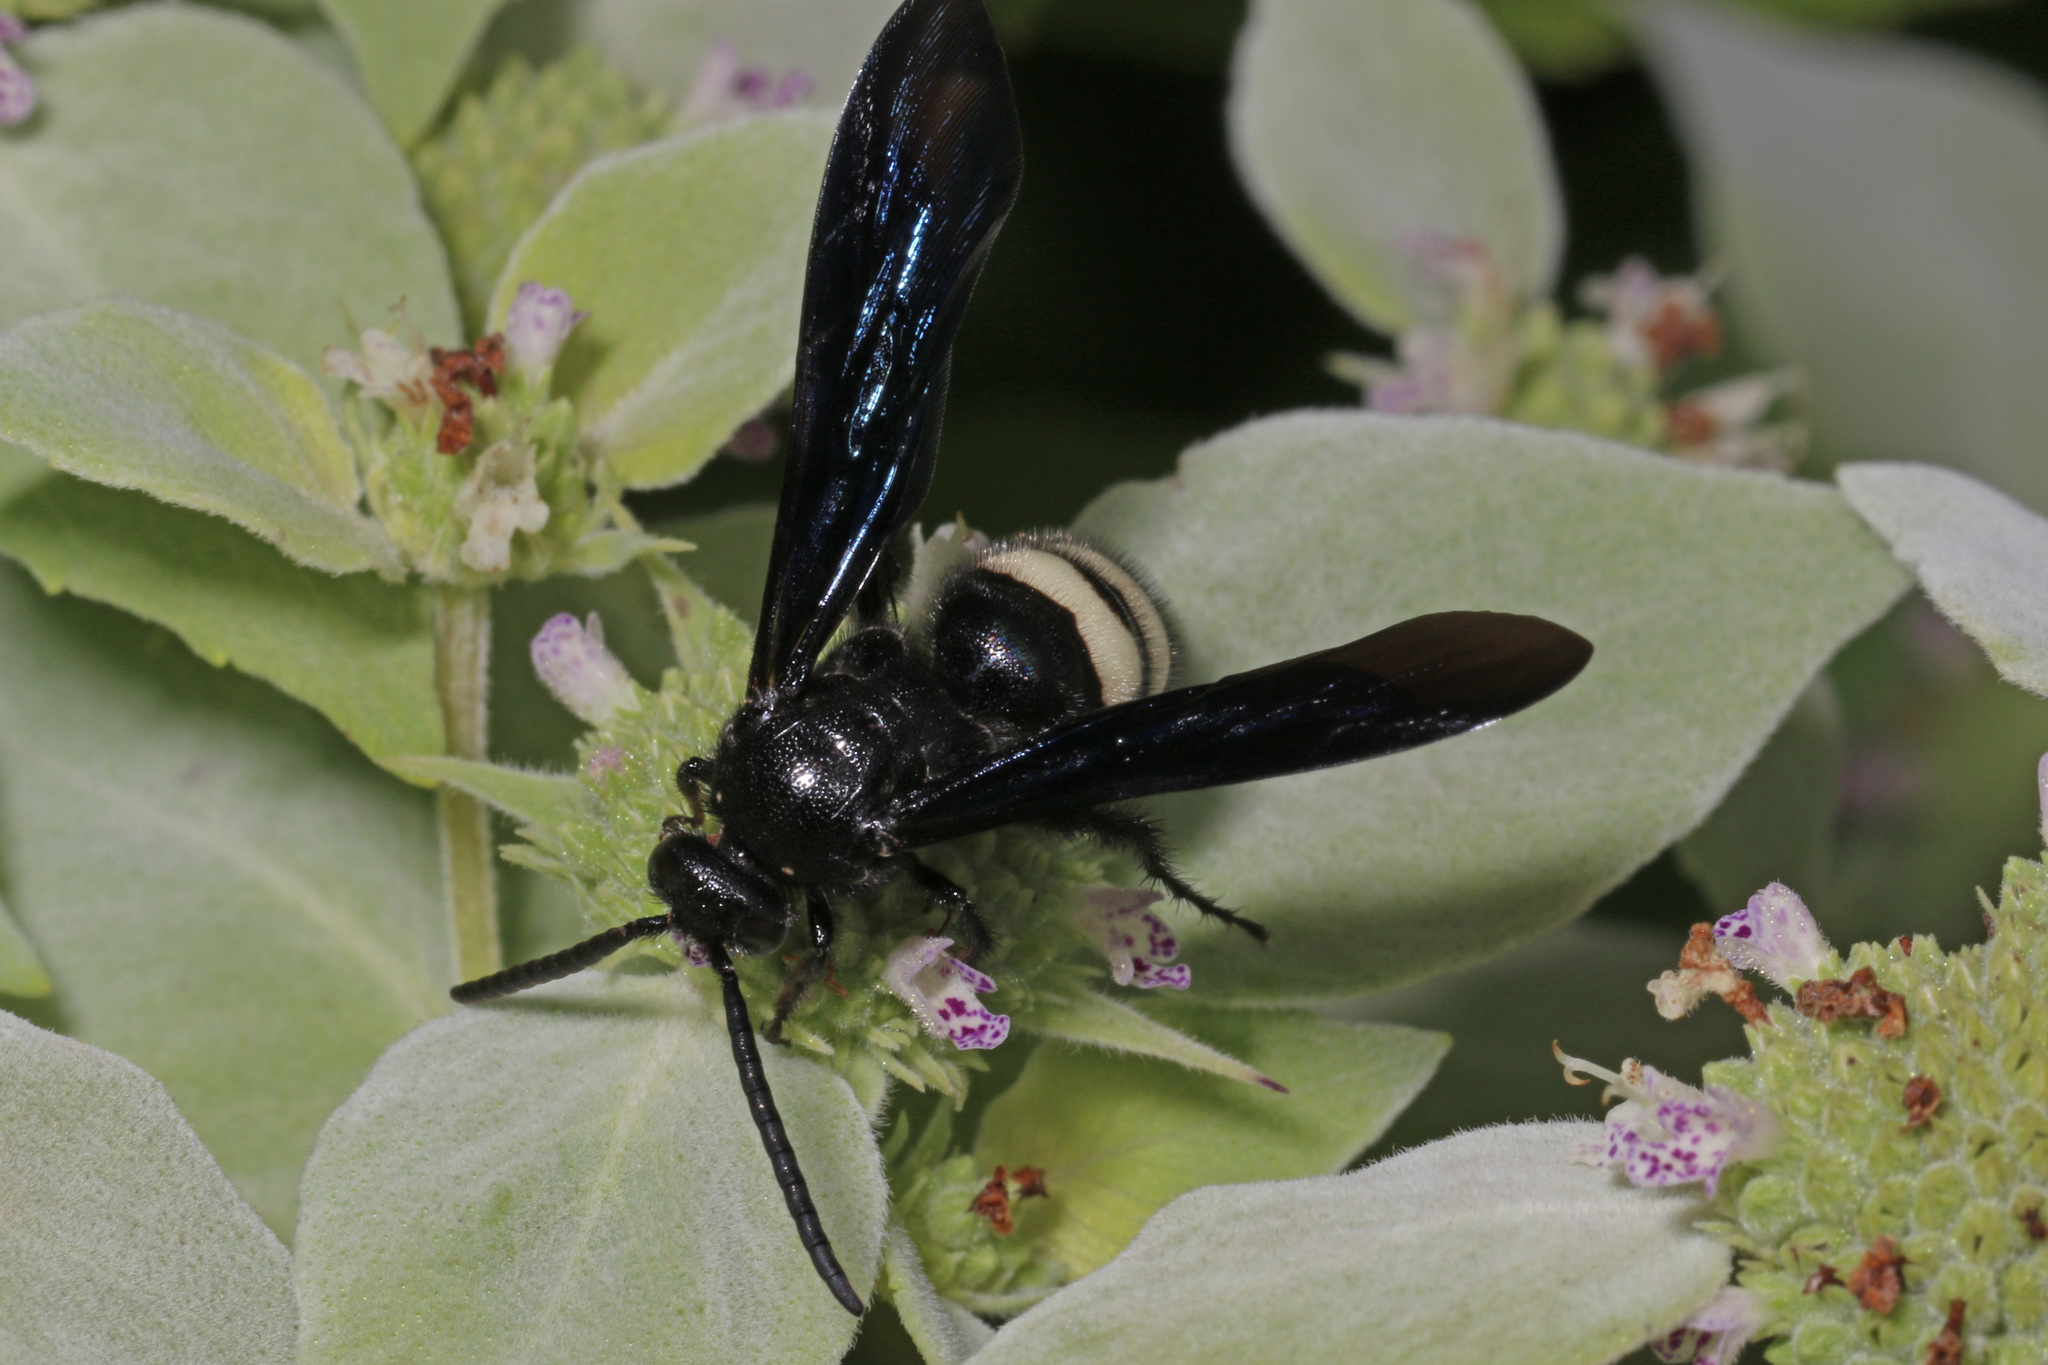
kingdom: Animalia
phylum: Arthropoda
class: Insecta
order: Hymenoptera
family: Scoliidae
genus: Scolia
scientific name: Scolia bicincta
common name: Double-banded scoliid wasp
